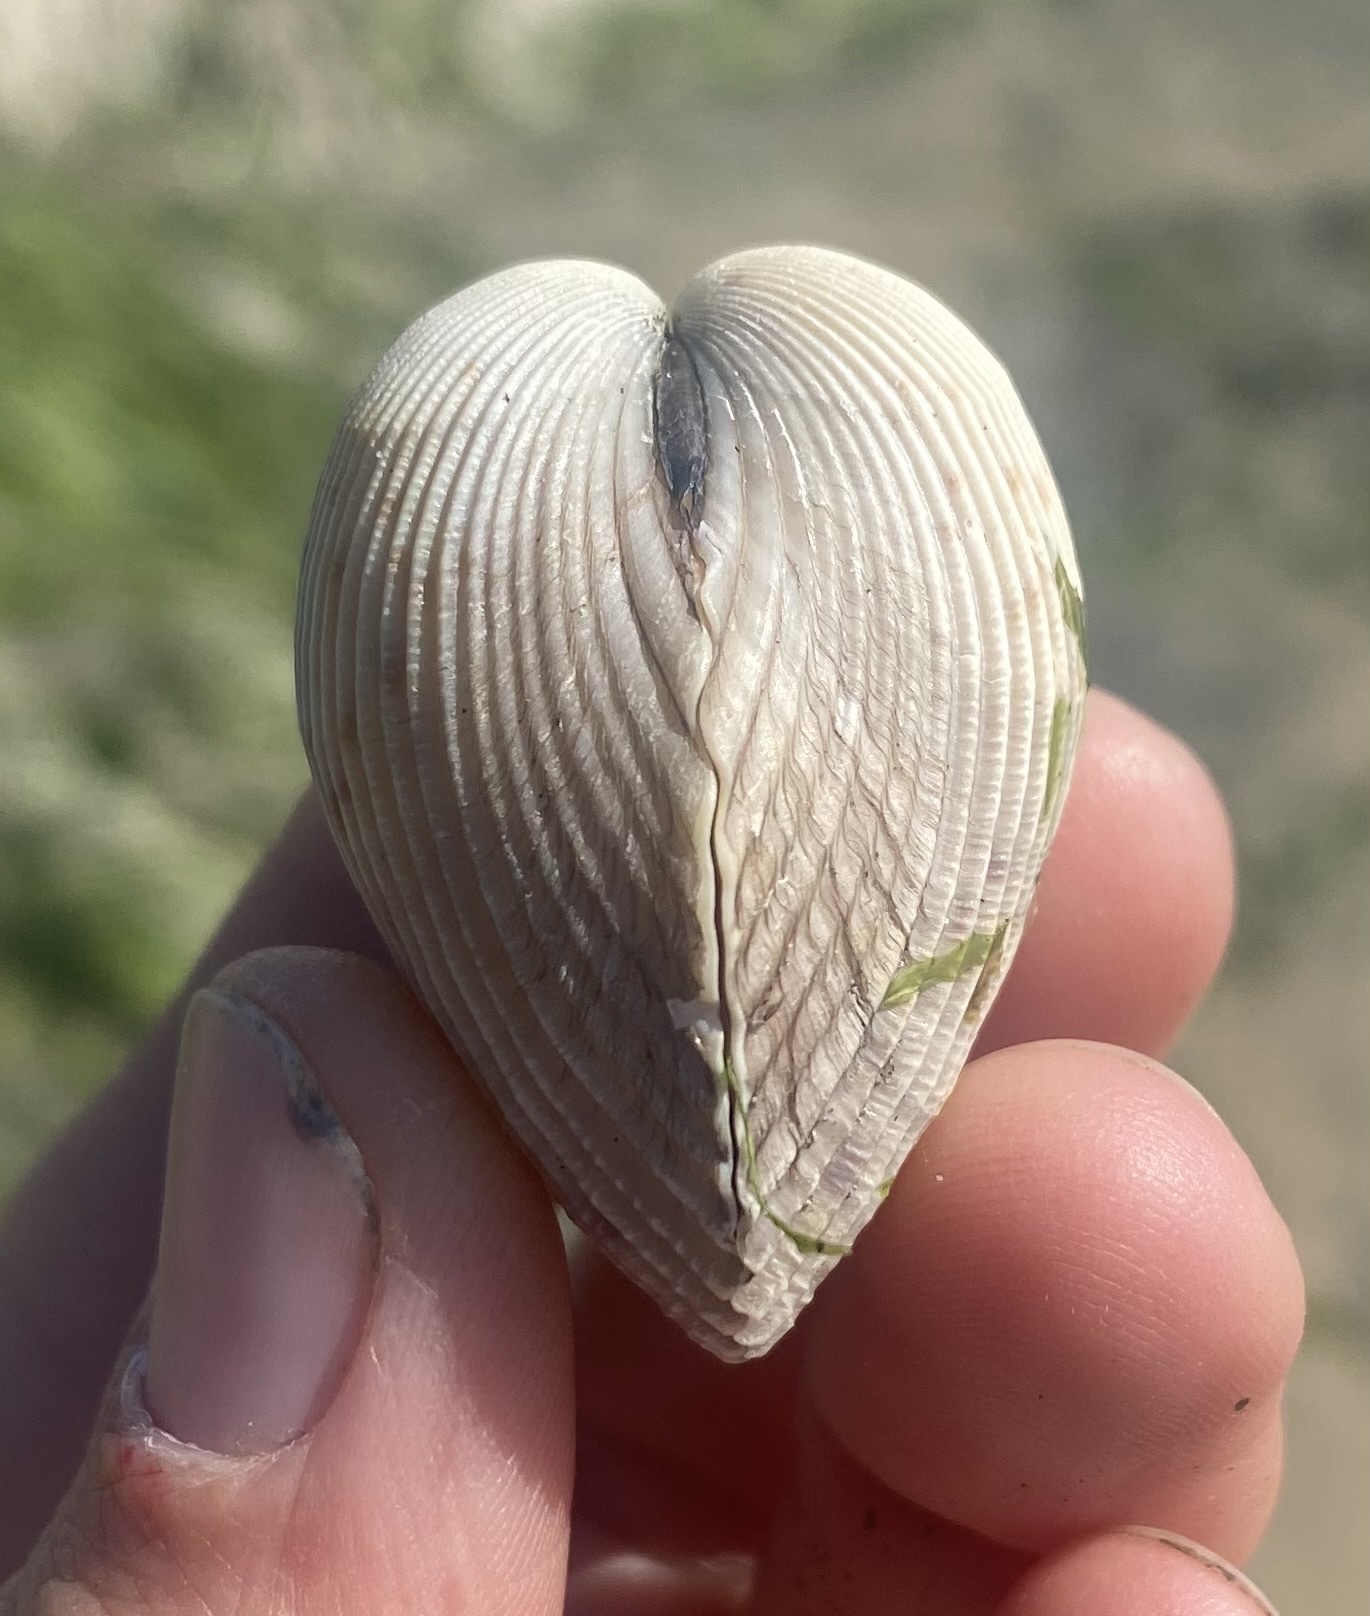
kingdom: Animalia
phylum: Mollusca
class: Bivalvia
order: Cardiida
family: Cardiidae
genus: Clinocardium
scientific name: Clinocardium nuttallii
